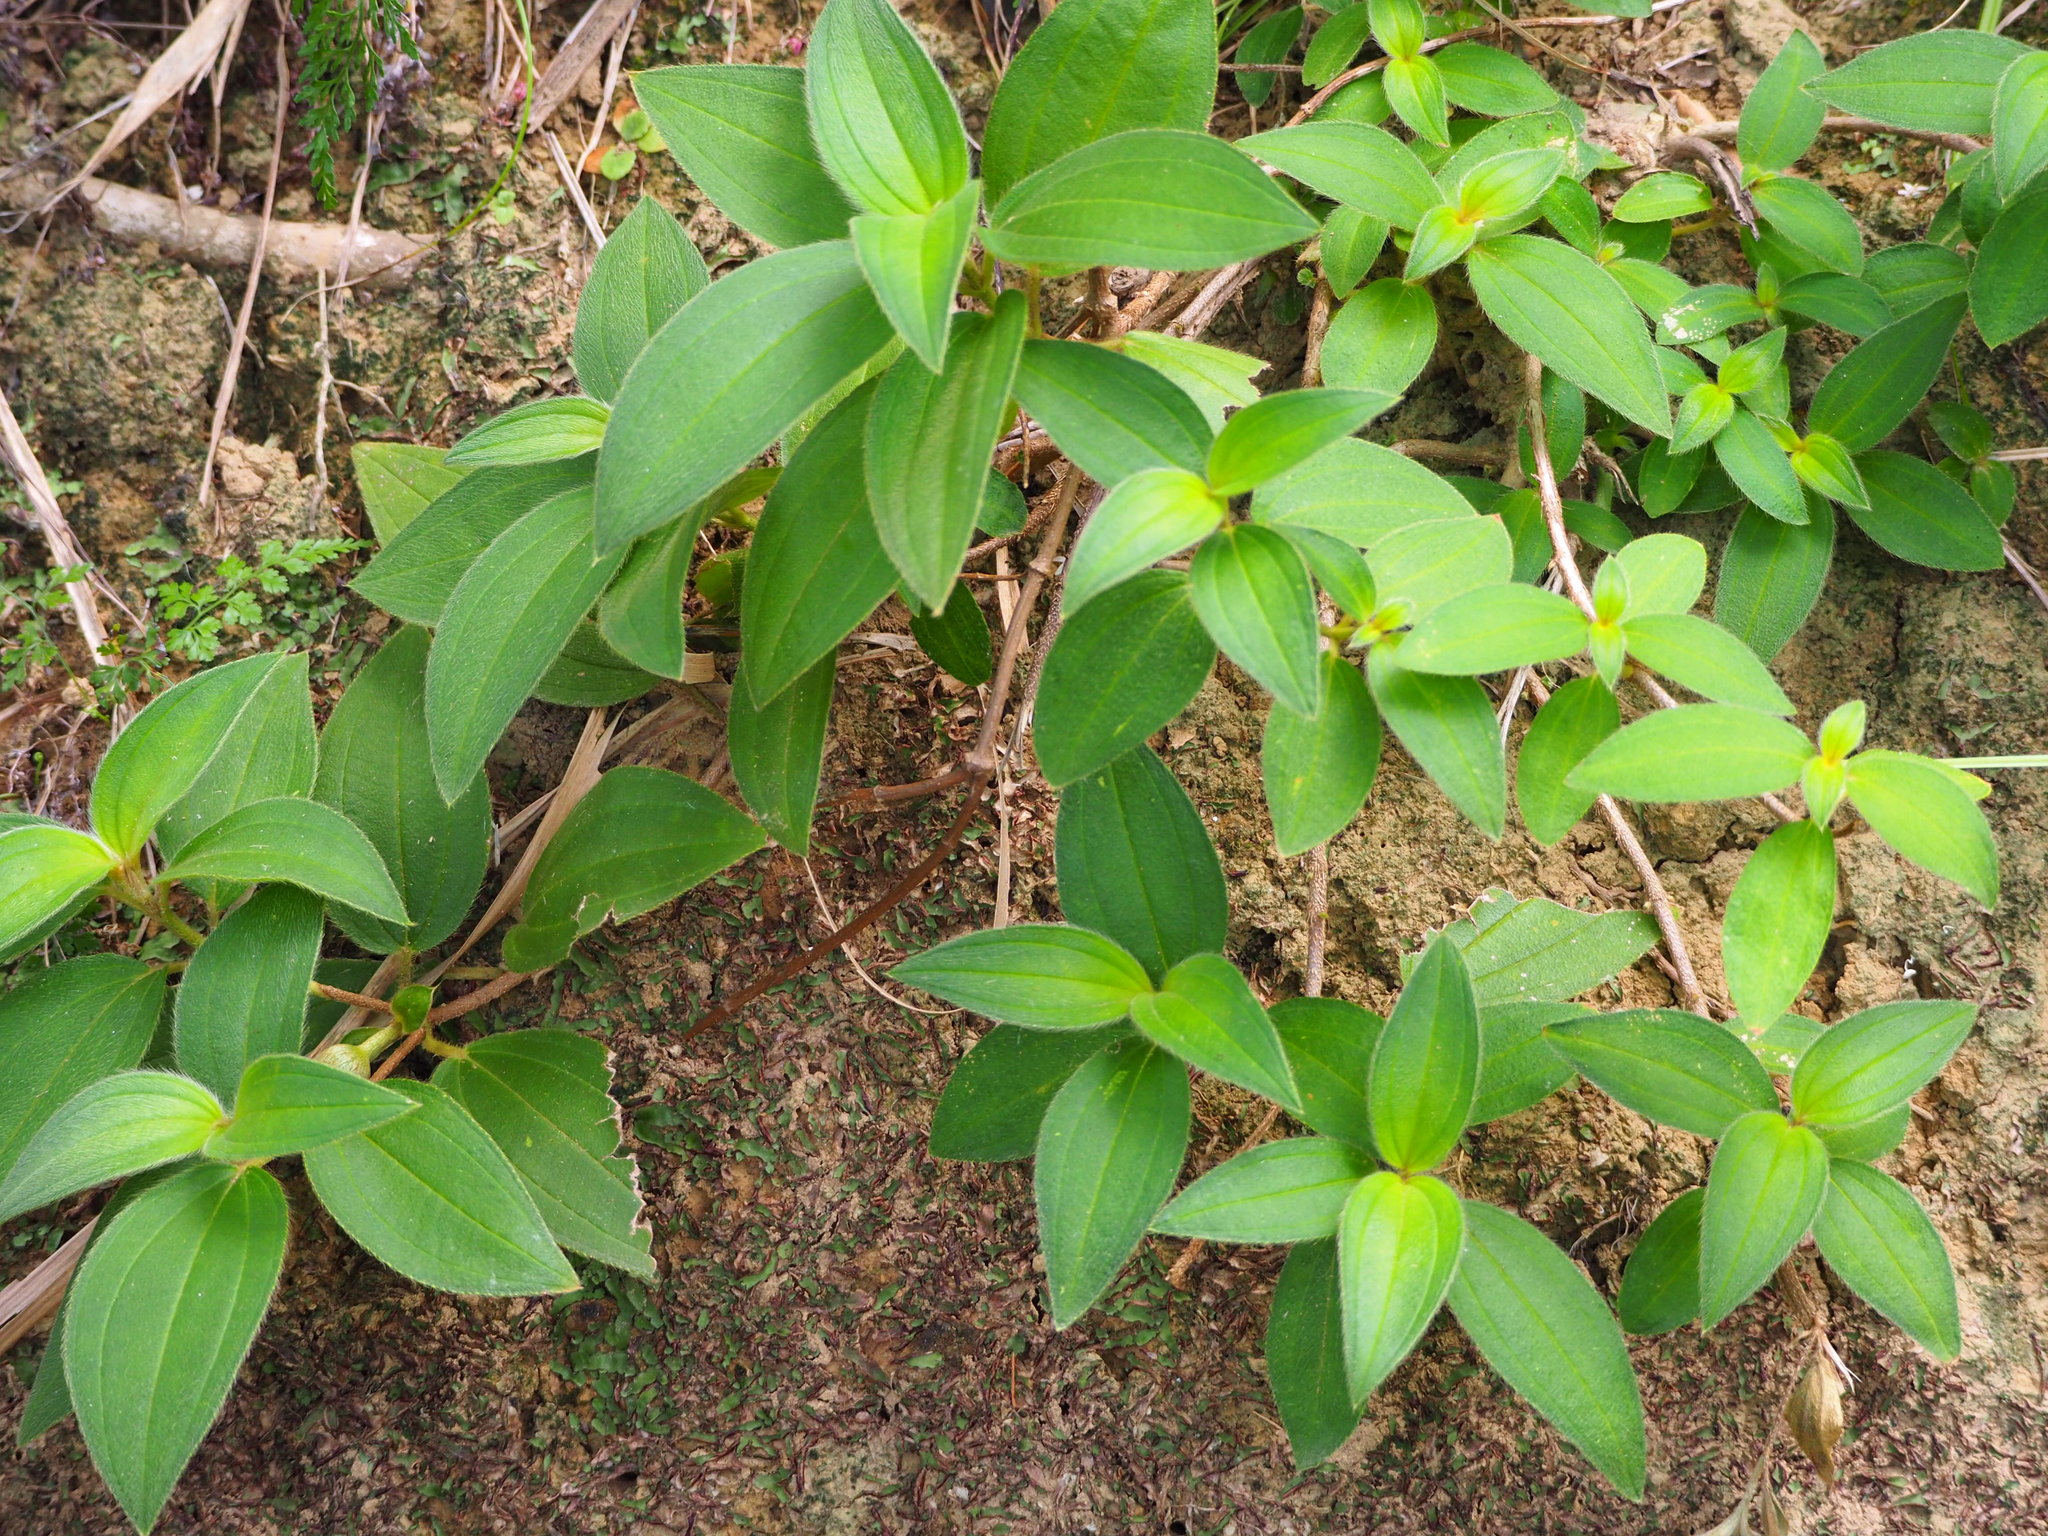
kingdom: Plantae
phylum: Tracheophyta
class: Magnoliopsida
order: Myrtales
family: Melastomataceae
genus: Melastoma
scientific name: Melastoma malabathricum
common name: Indian-rhododendron
